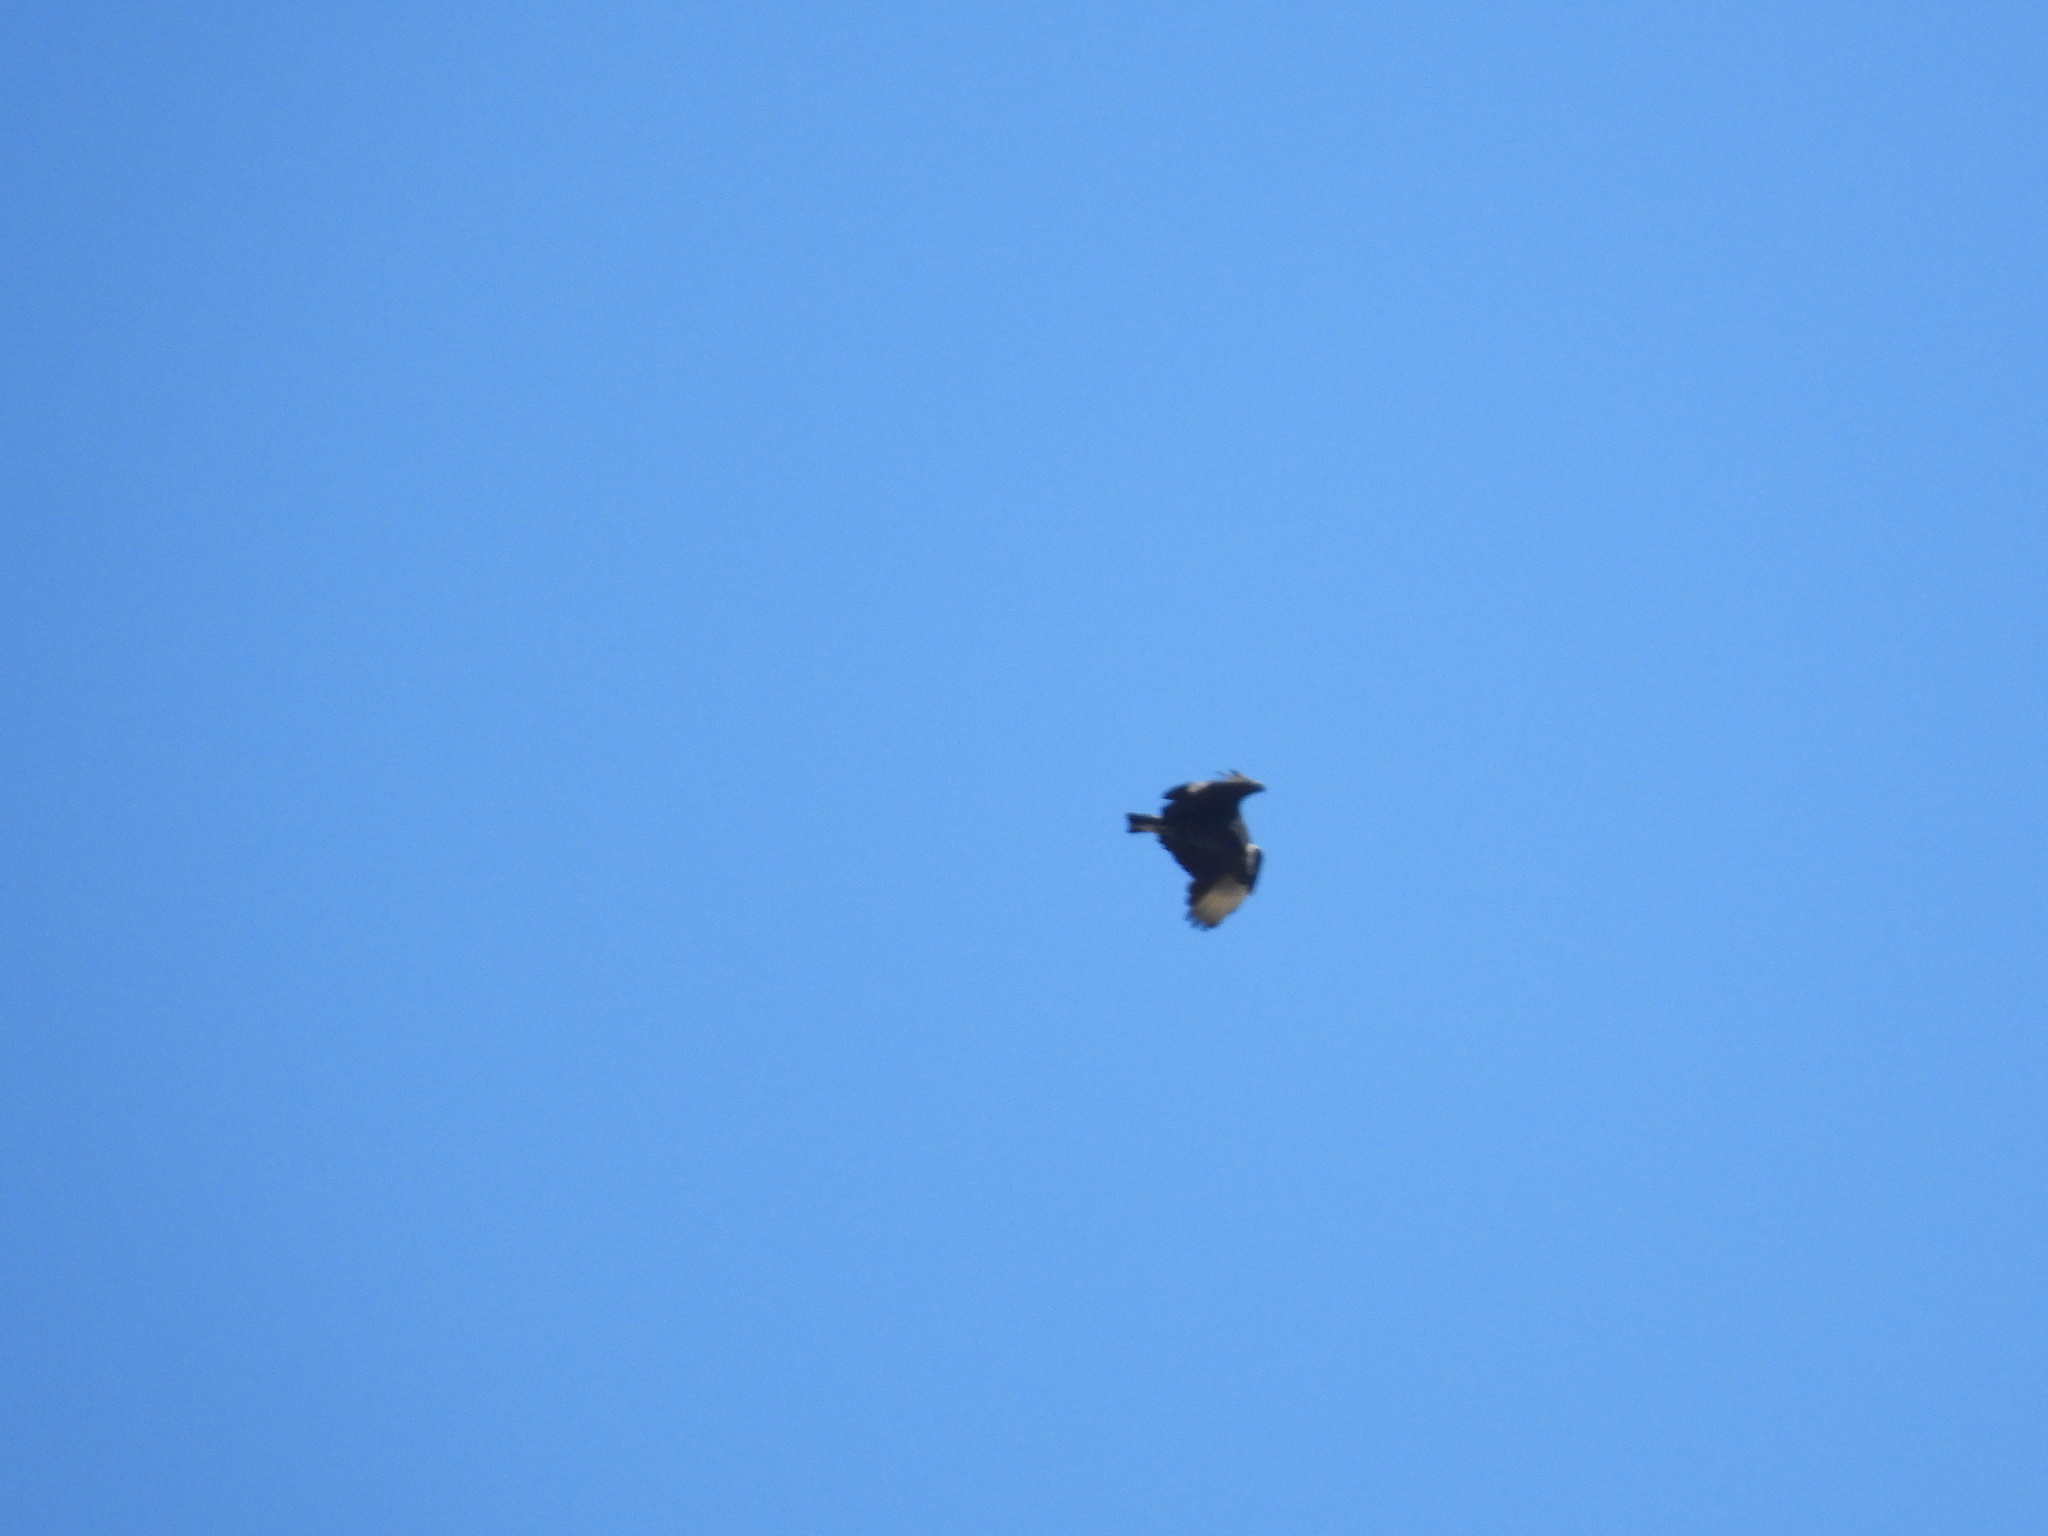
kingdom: Animalia
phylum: Chordata
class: Aves
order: Accipitriformes
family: Cathartidae
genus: Coragyps
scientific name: Coragyps atratus
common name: Black vulture
